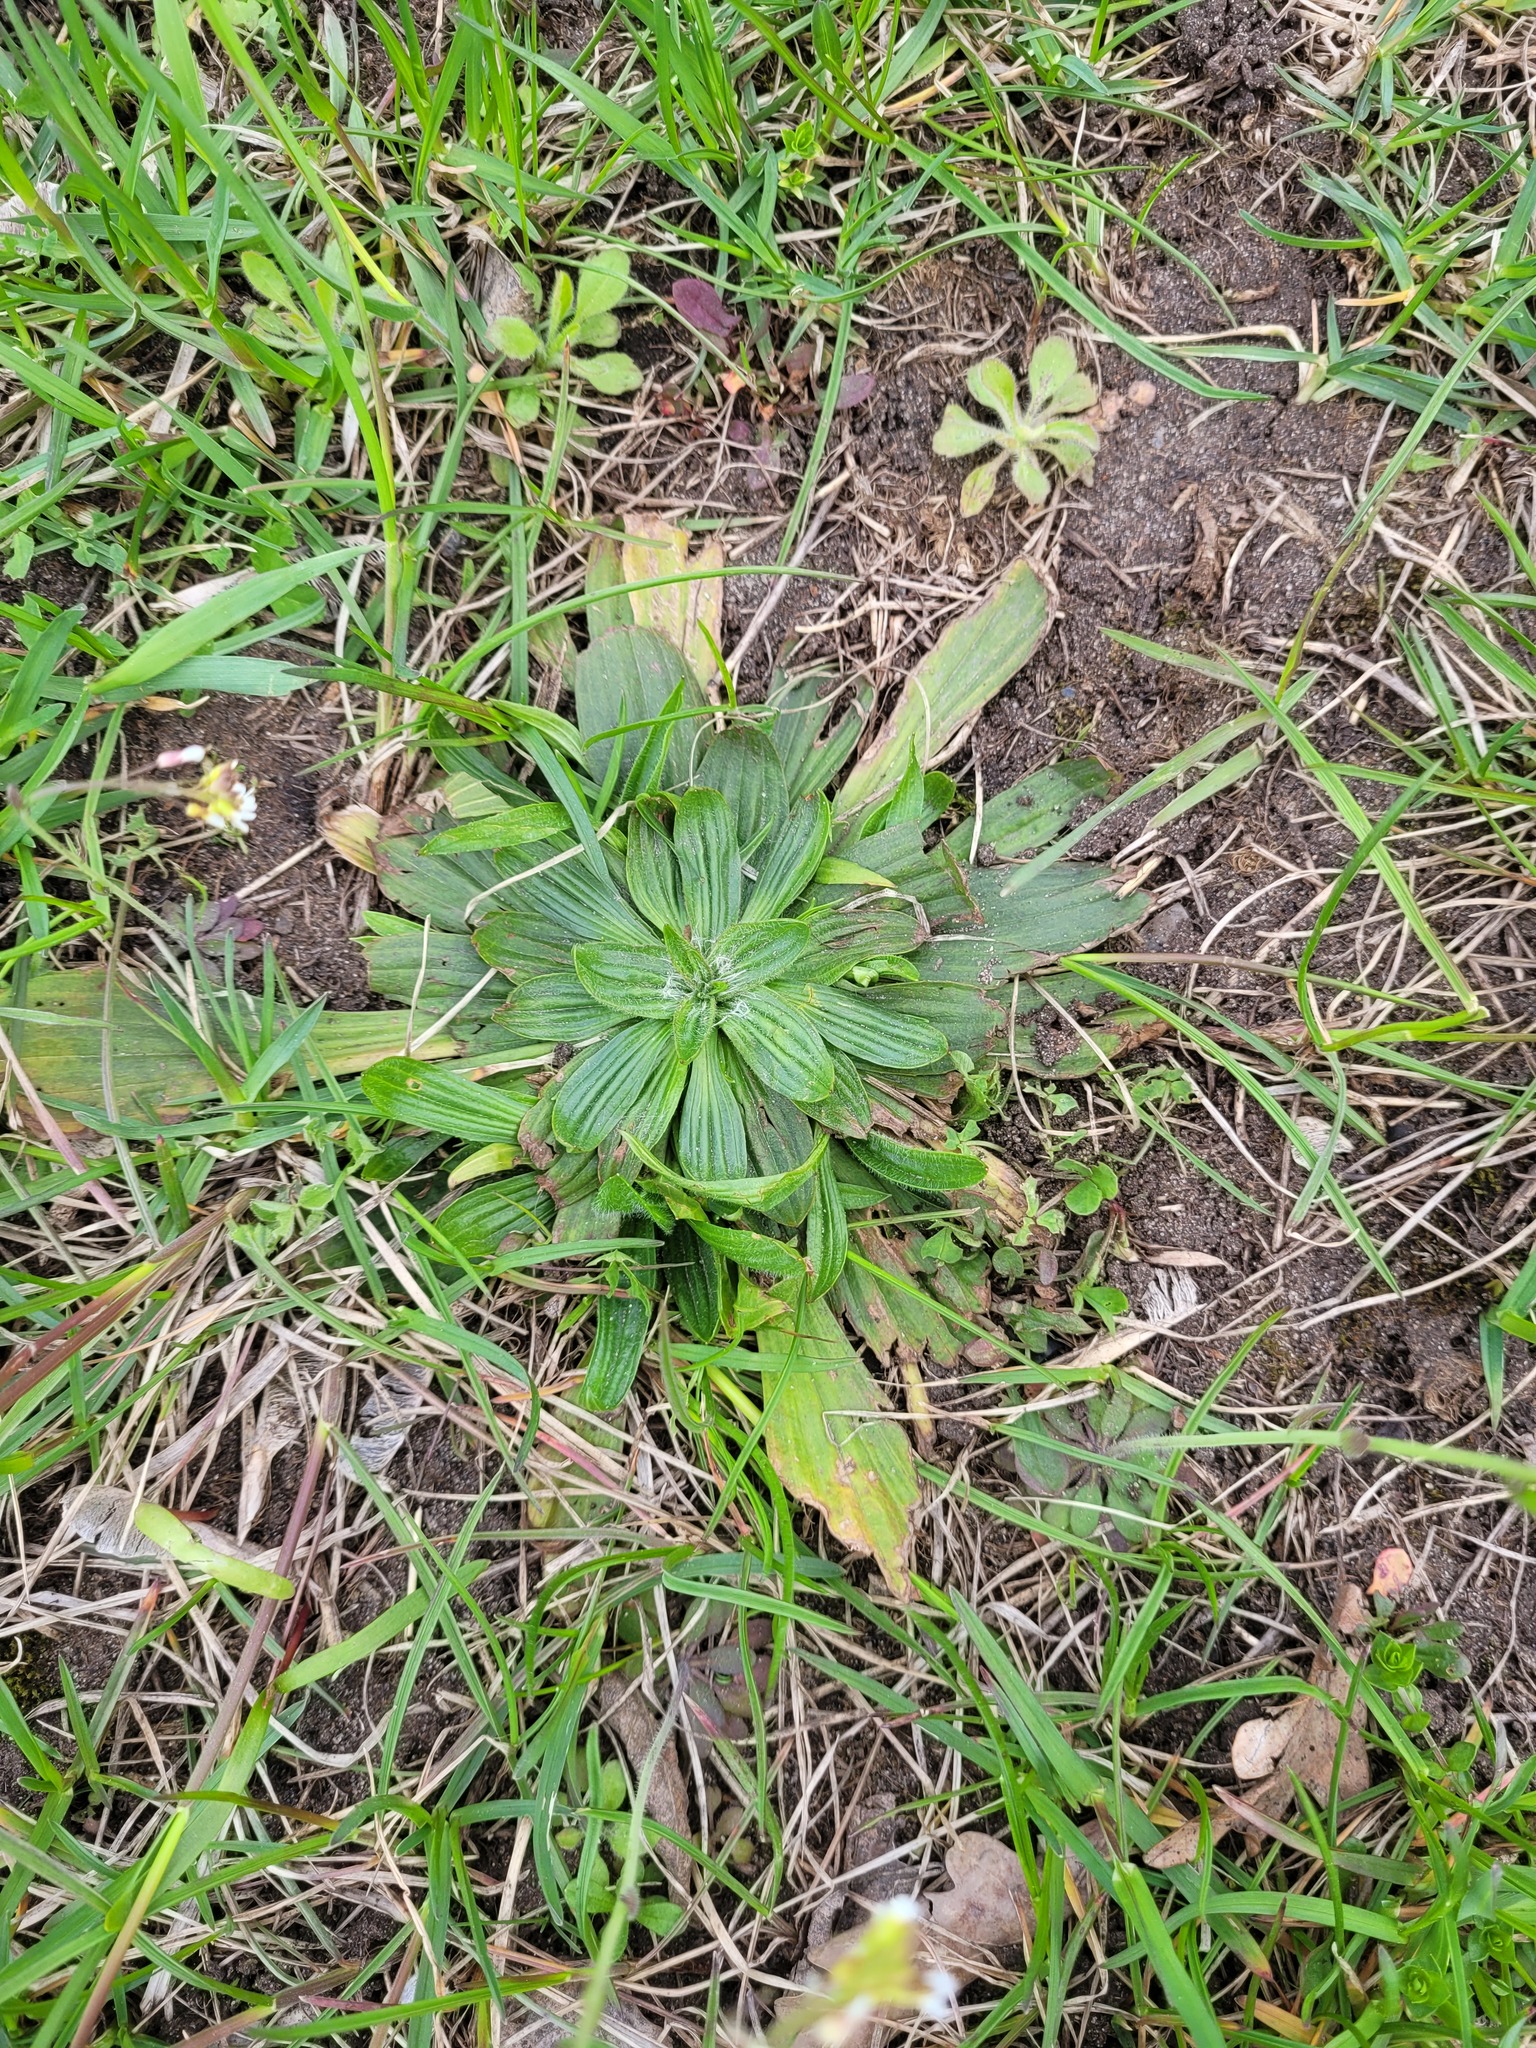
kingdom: Plantae
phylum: Tracheophyta
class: Magnoliopsida
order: Lamiales
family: Plantaginaceae
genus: Plantago
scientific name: Plantago lanceolata
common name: Ribwort plantain
